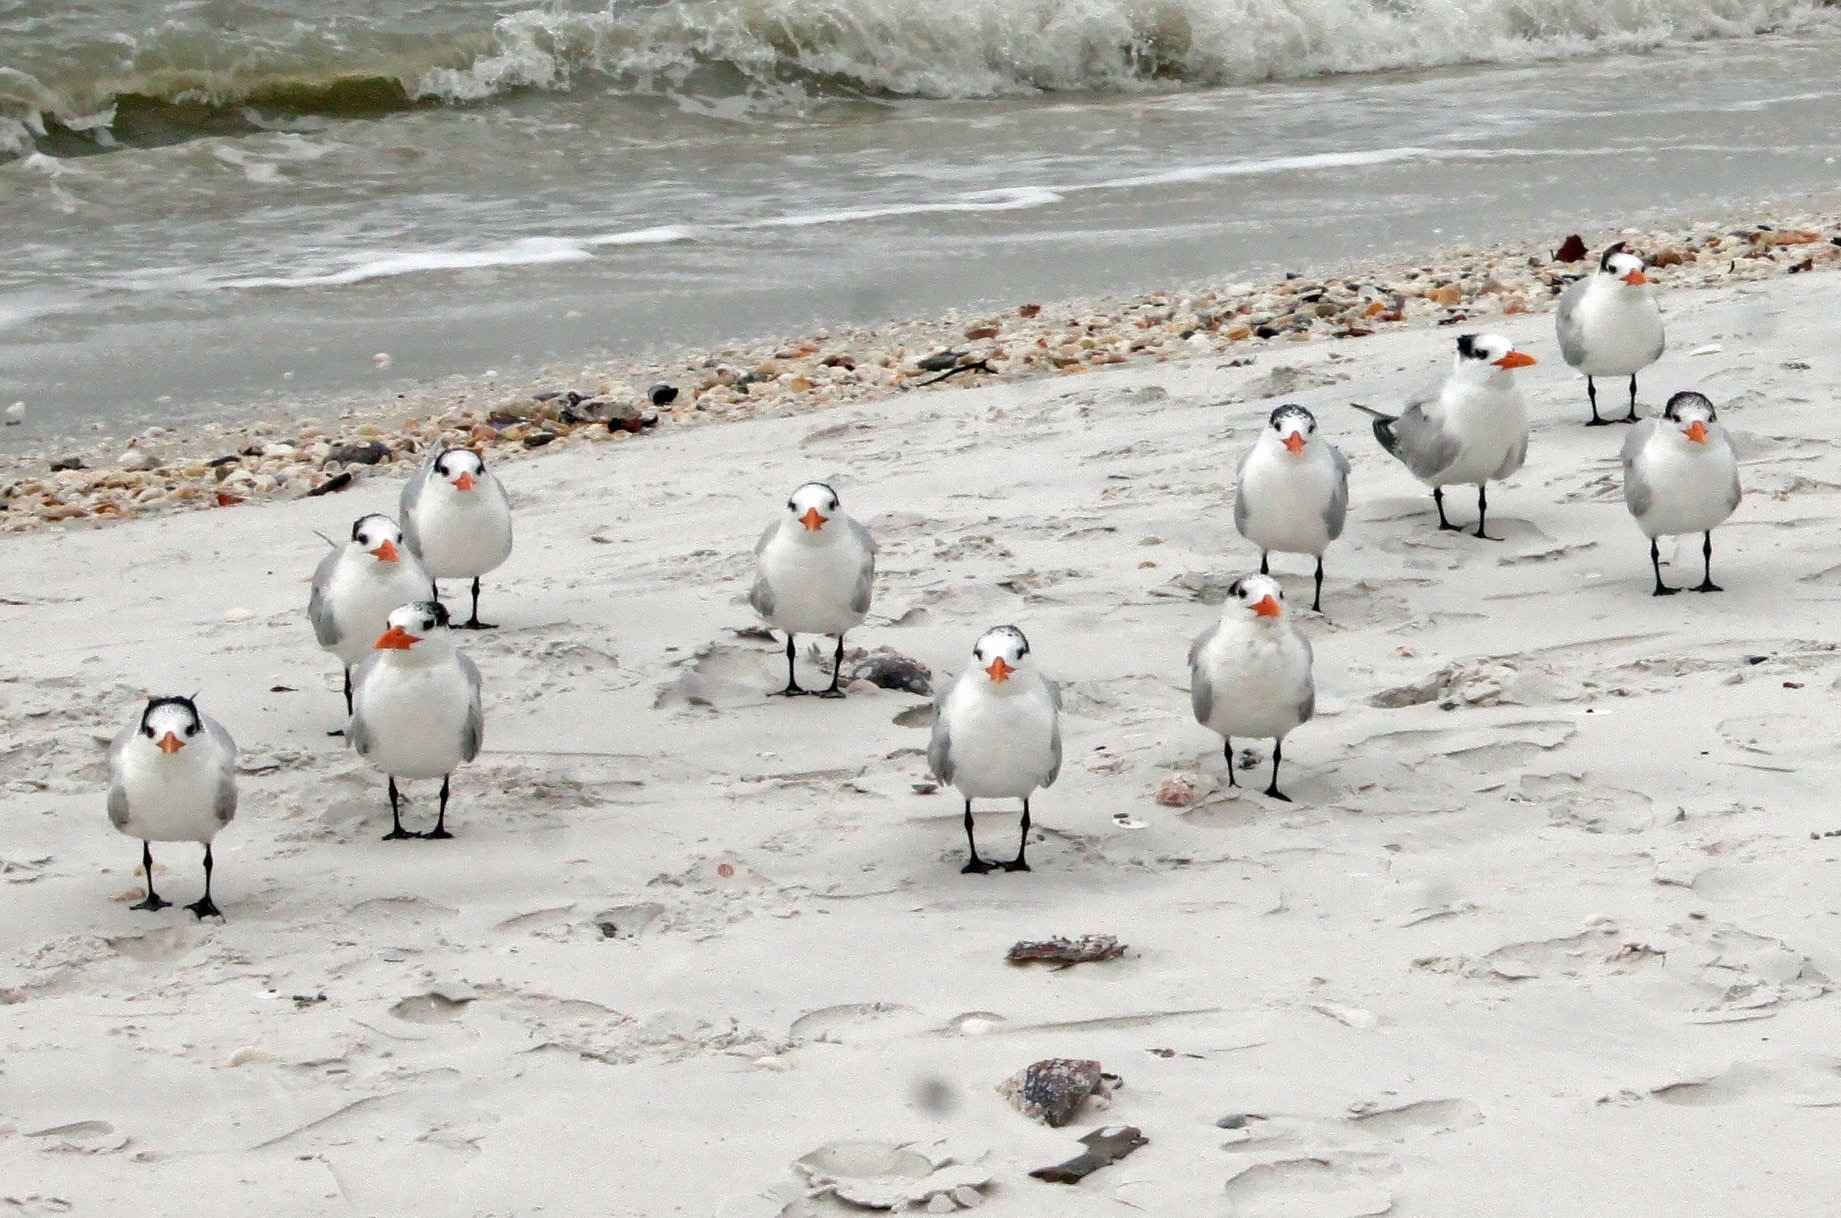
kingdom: Animalia
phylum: Chordata
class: Aves
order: Charadriiformes
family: Laridae
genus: Thalasseus
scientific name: Thalasseus maximus
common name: Royal tern
